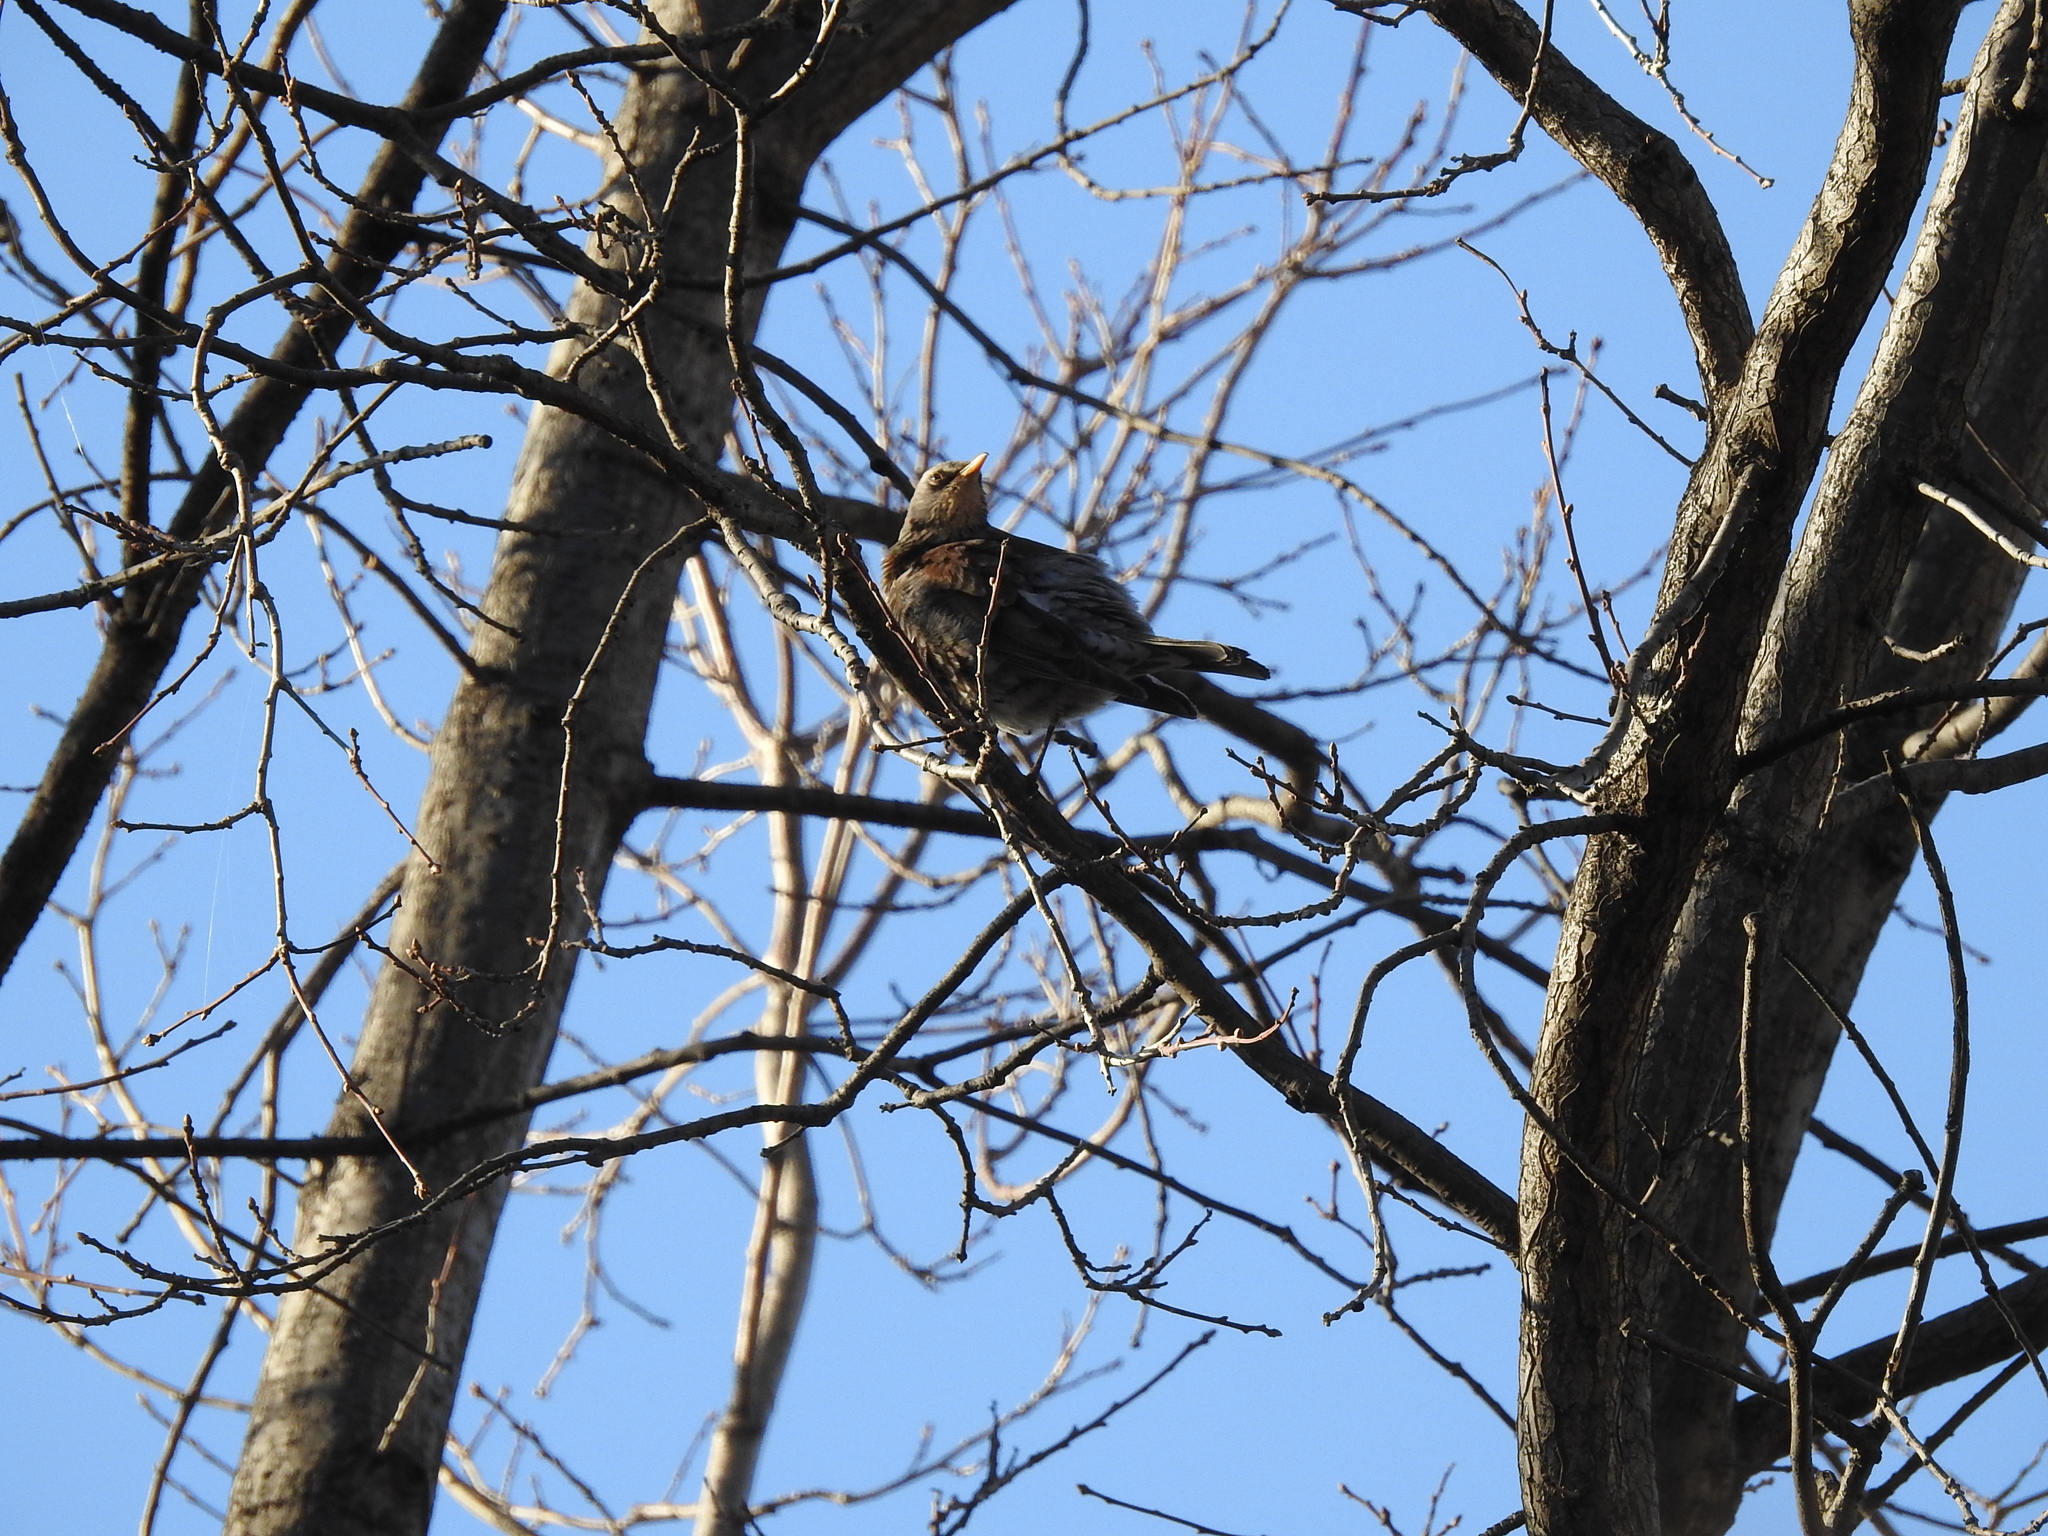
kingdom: Animalia
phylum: Chordata
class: Aves
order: Passeriformes
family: Turdidae
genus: Turdus
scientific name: Turdus pilaris
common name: Fieldfare
